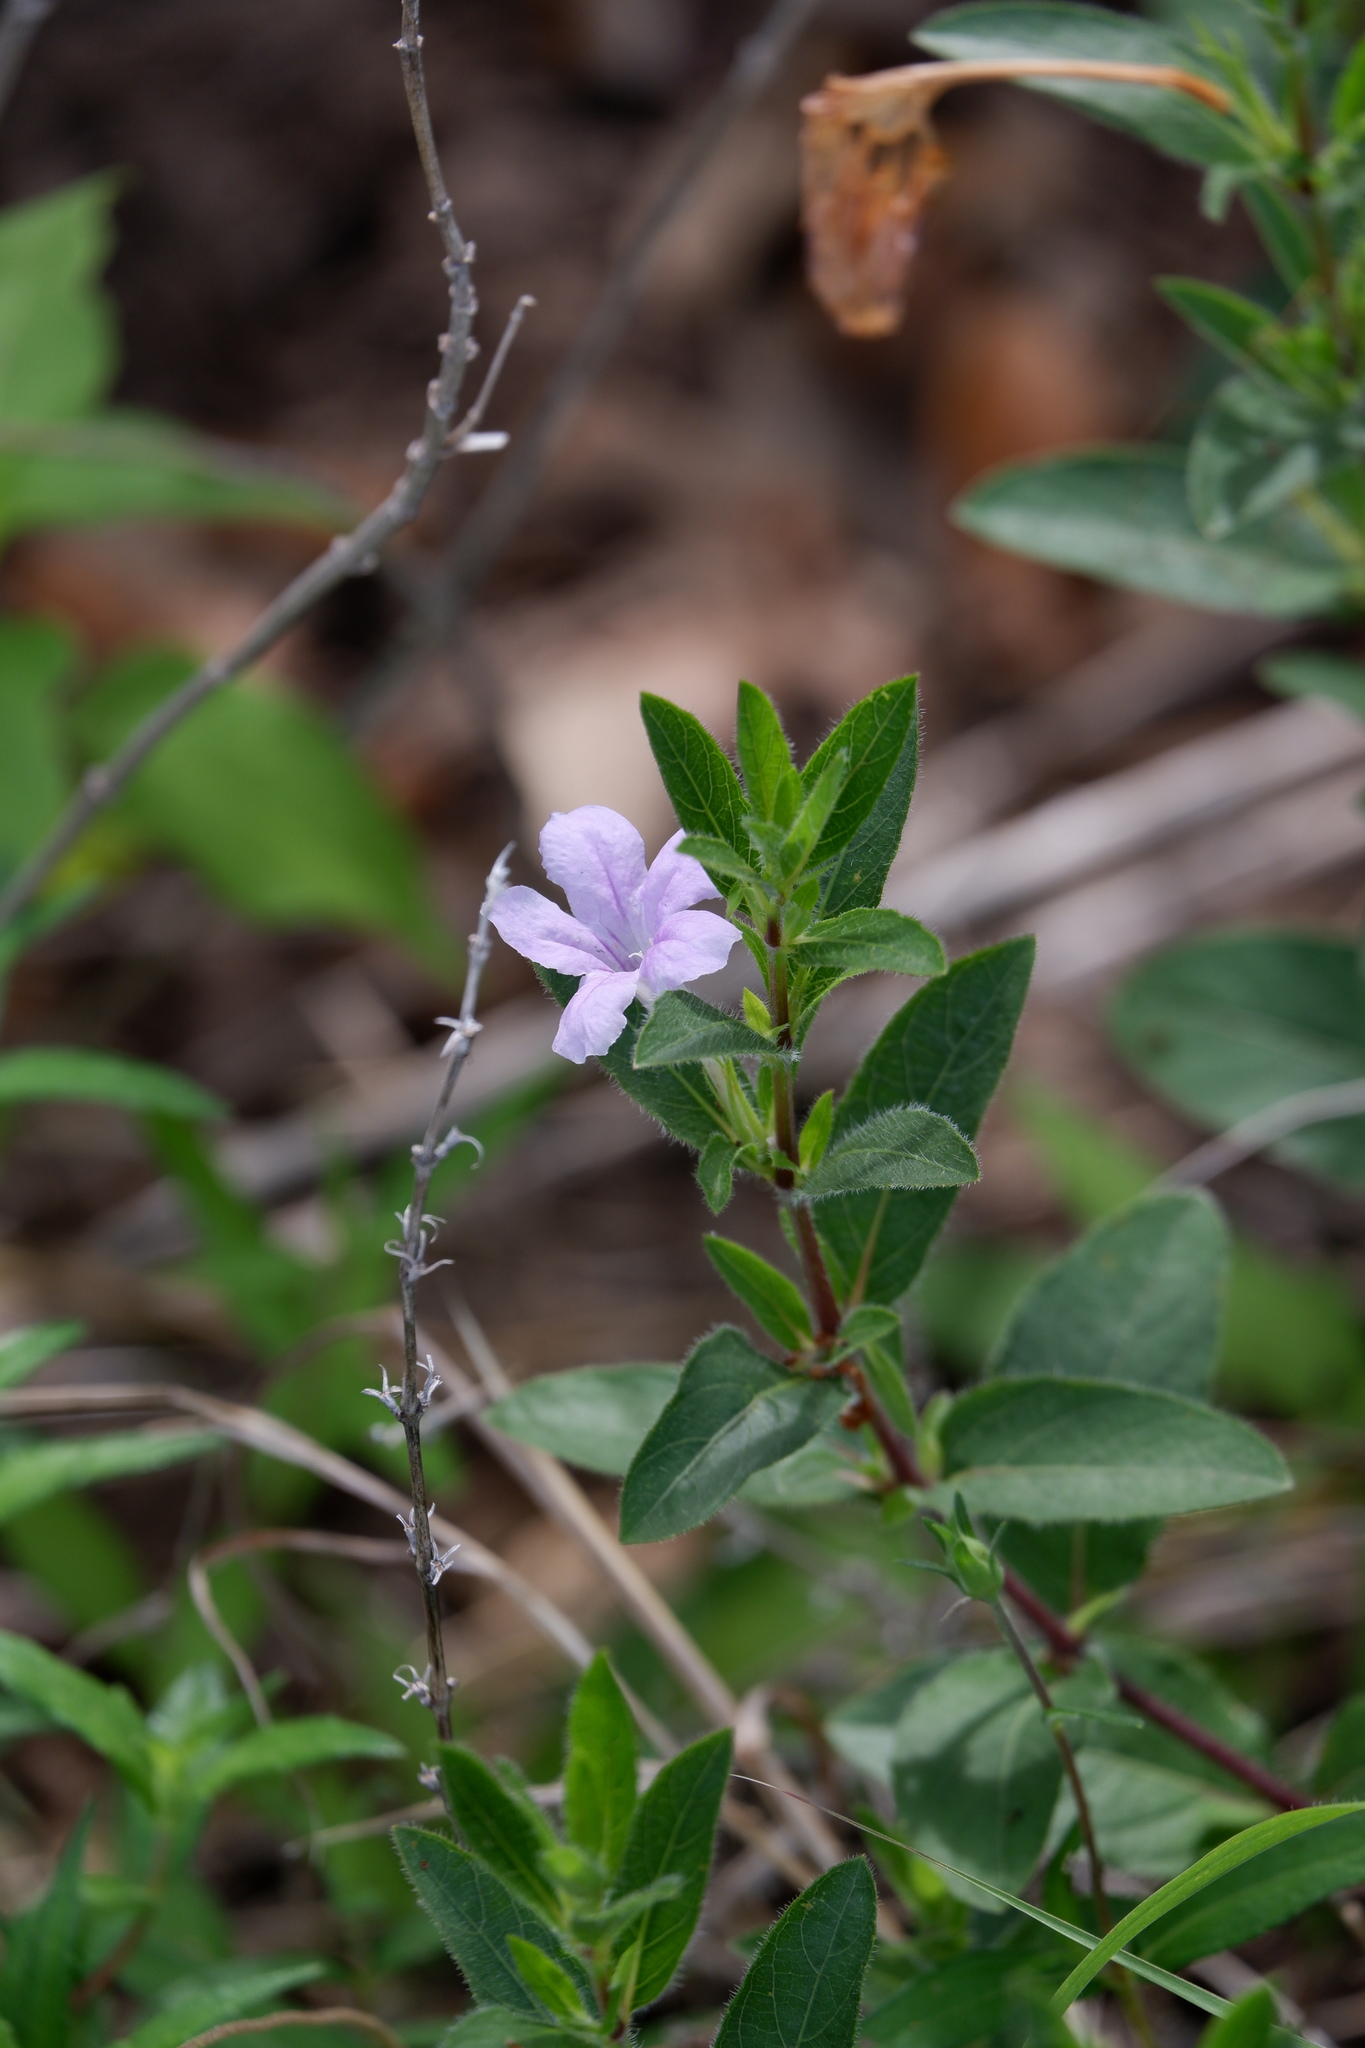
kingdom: Plantae
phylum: Tracheophyta
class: Magnoliopsida
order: Lamiales
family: Acanthaceae
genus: Ruellia
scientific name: Ruellia humilis
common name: Fringe-leaf ruellia
